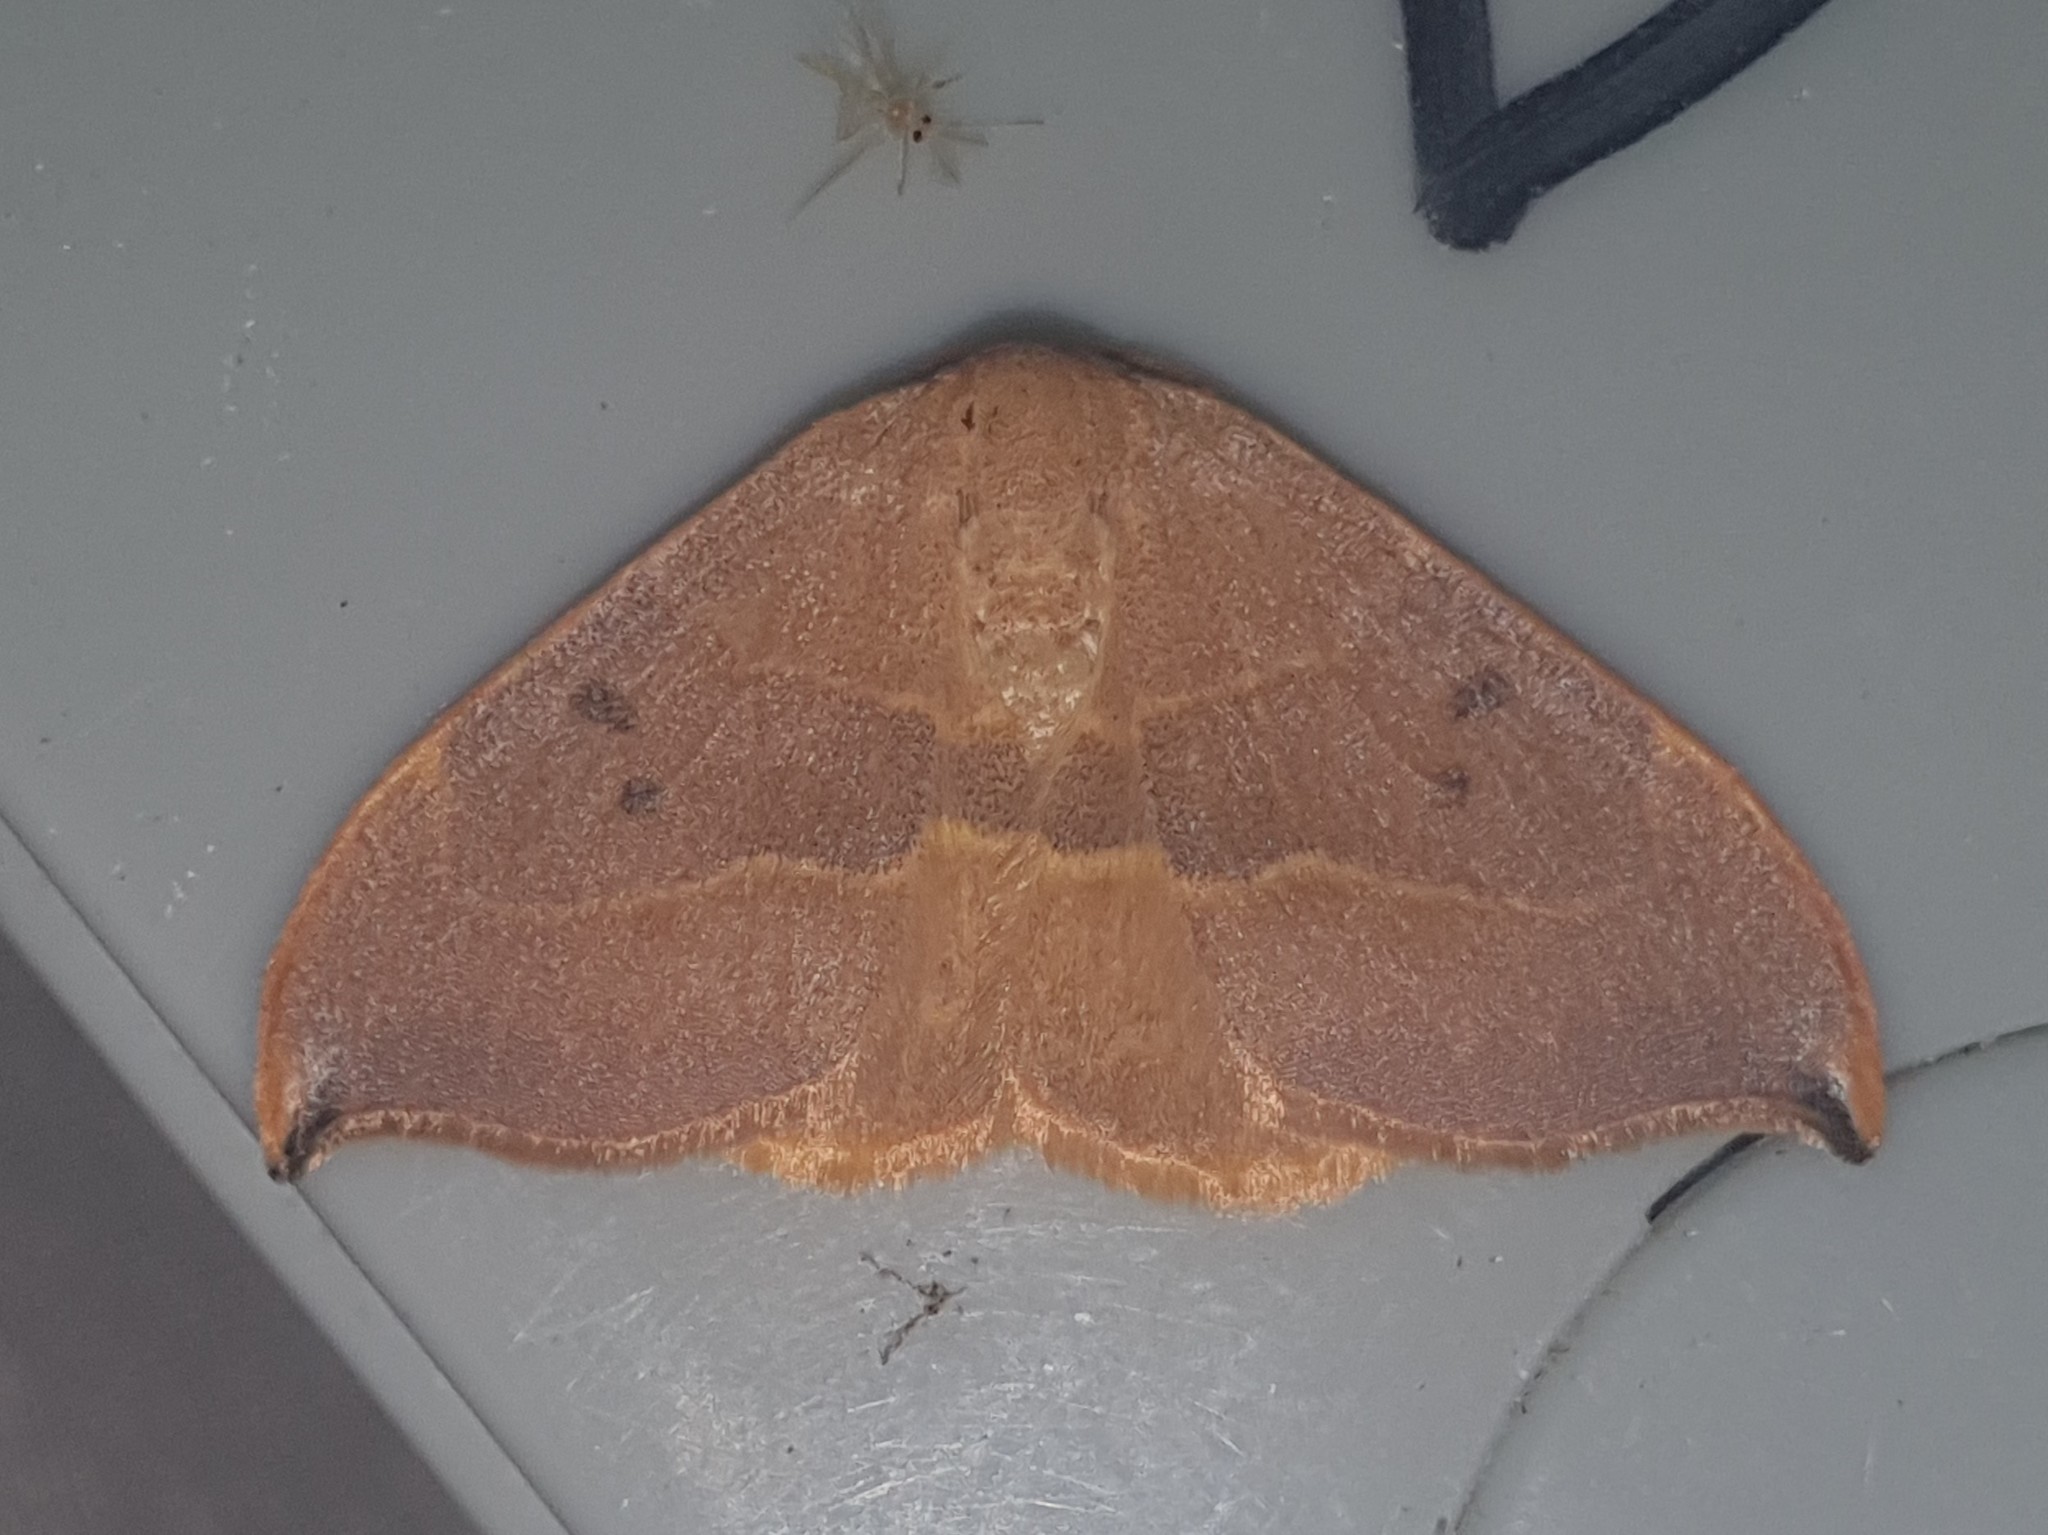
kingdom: Animalia
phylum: Arthropoda
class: Insecta
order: Lepidoptera
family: Drepanidae
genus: Watsonalla
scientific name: Watsonalla uncinula
